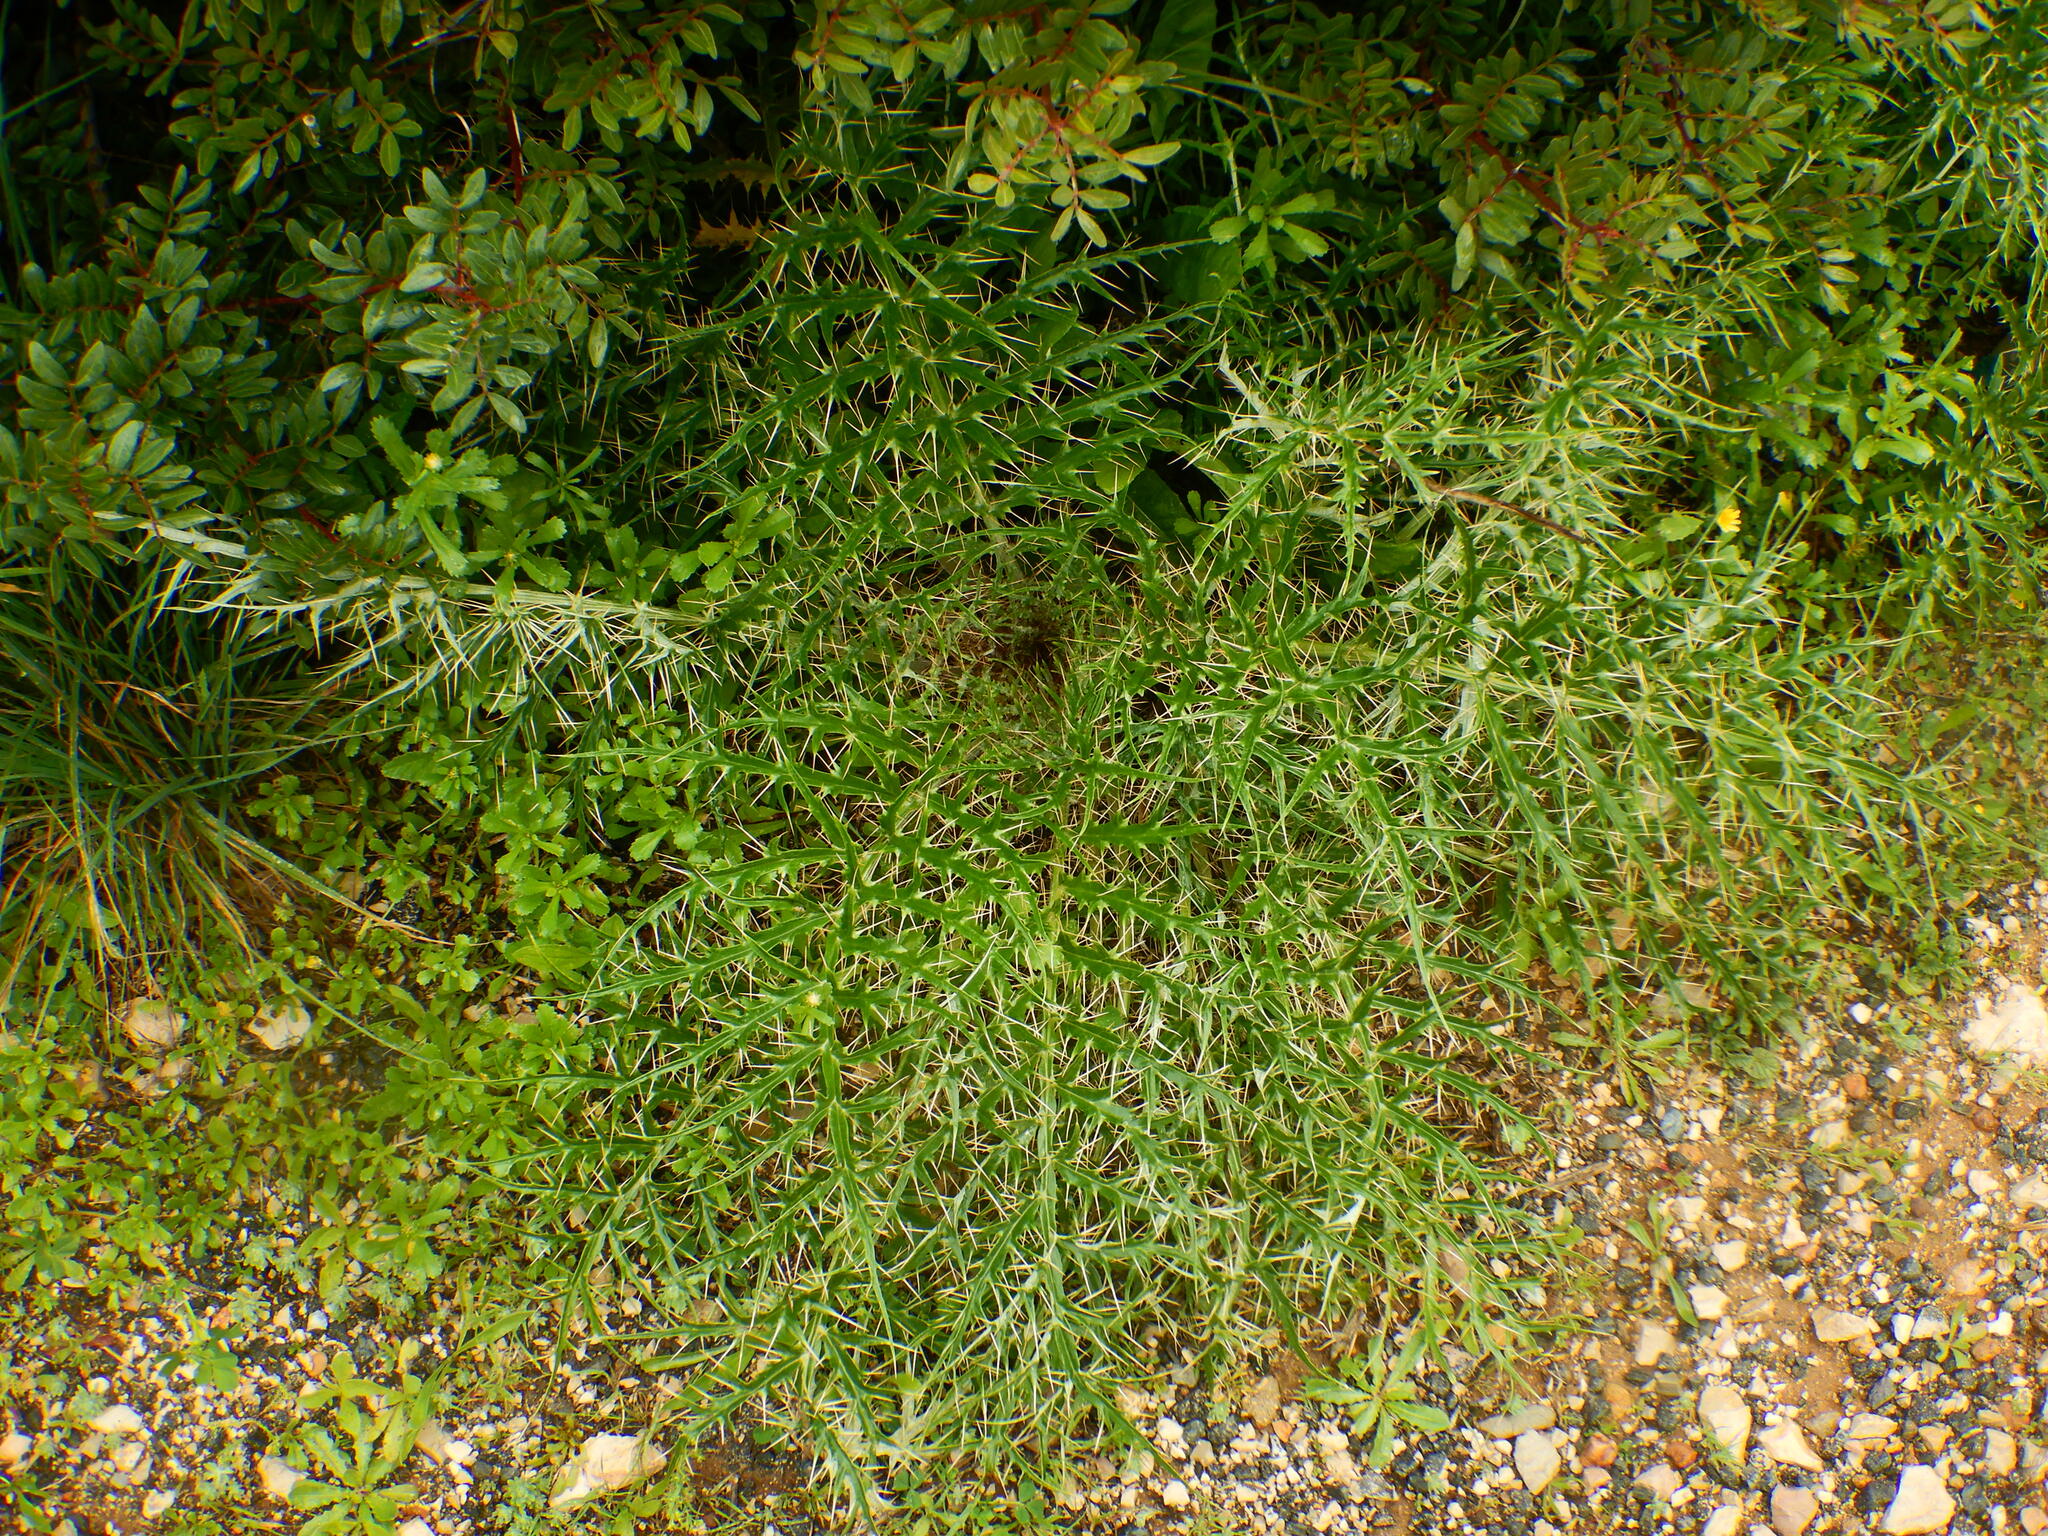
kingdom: Plantae
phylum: Tracheophyta
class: Magnoliopsida
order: Asterales
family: Asteraceae
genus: Cynara
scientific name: Cynara cardunculus
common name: Globe artichoke
